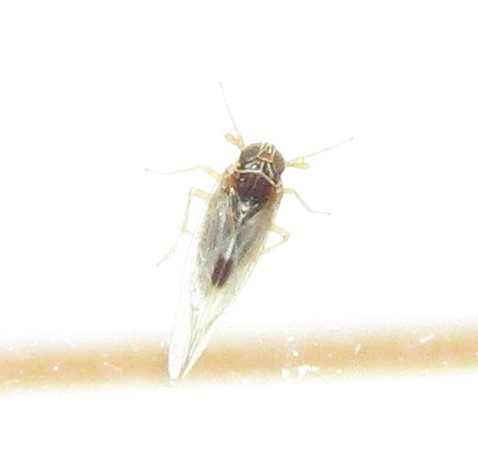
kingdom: Animalia
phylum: Arthropoda
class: Insecta
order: Hemiptera
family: Delphacidae
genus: Chionomus
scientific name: Chionomus
